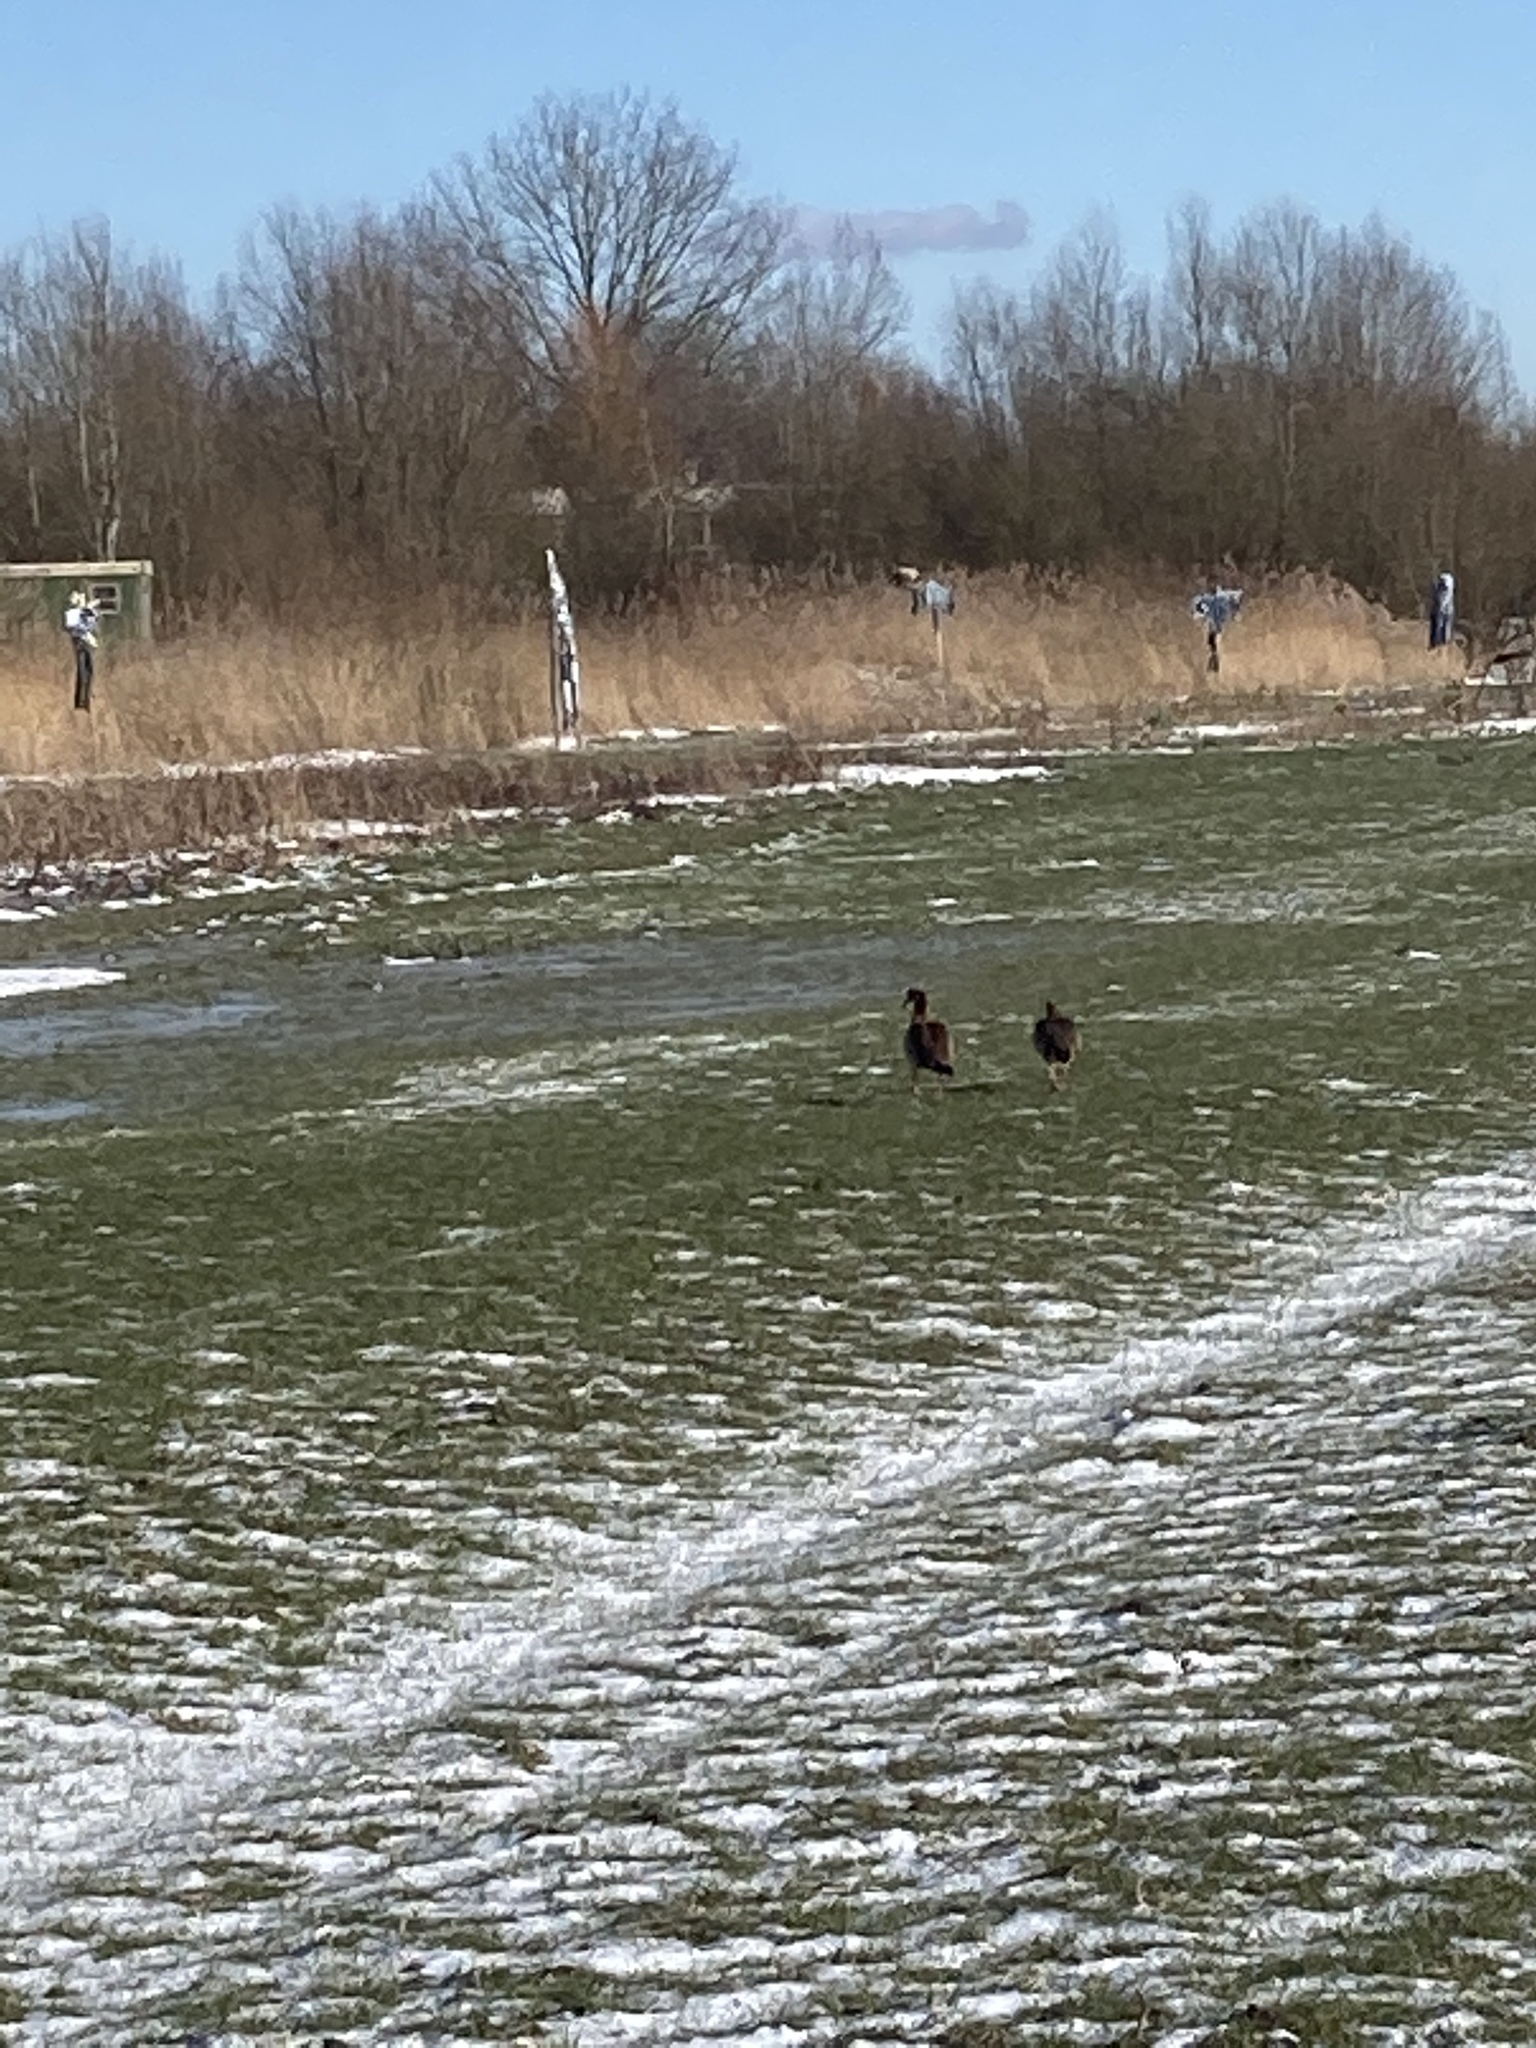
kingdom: Animalia
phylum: Chordata
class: Aves
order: Anseriformes
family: Anatidae
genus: Alopochen
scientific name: Alopochen aegyptiaca
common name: Egyptian goose
